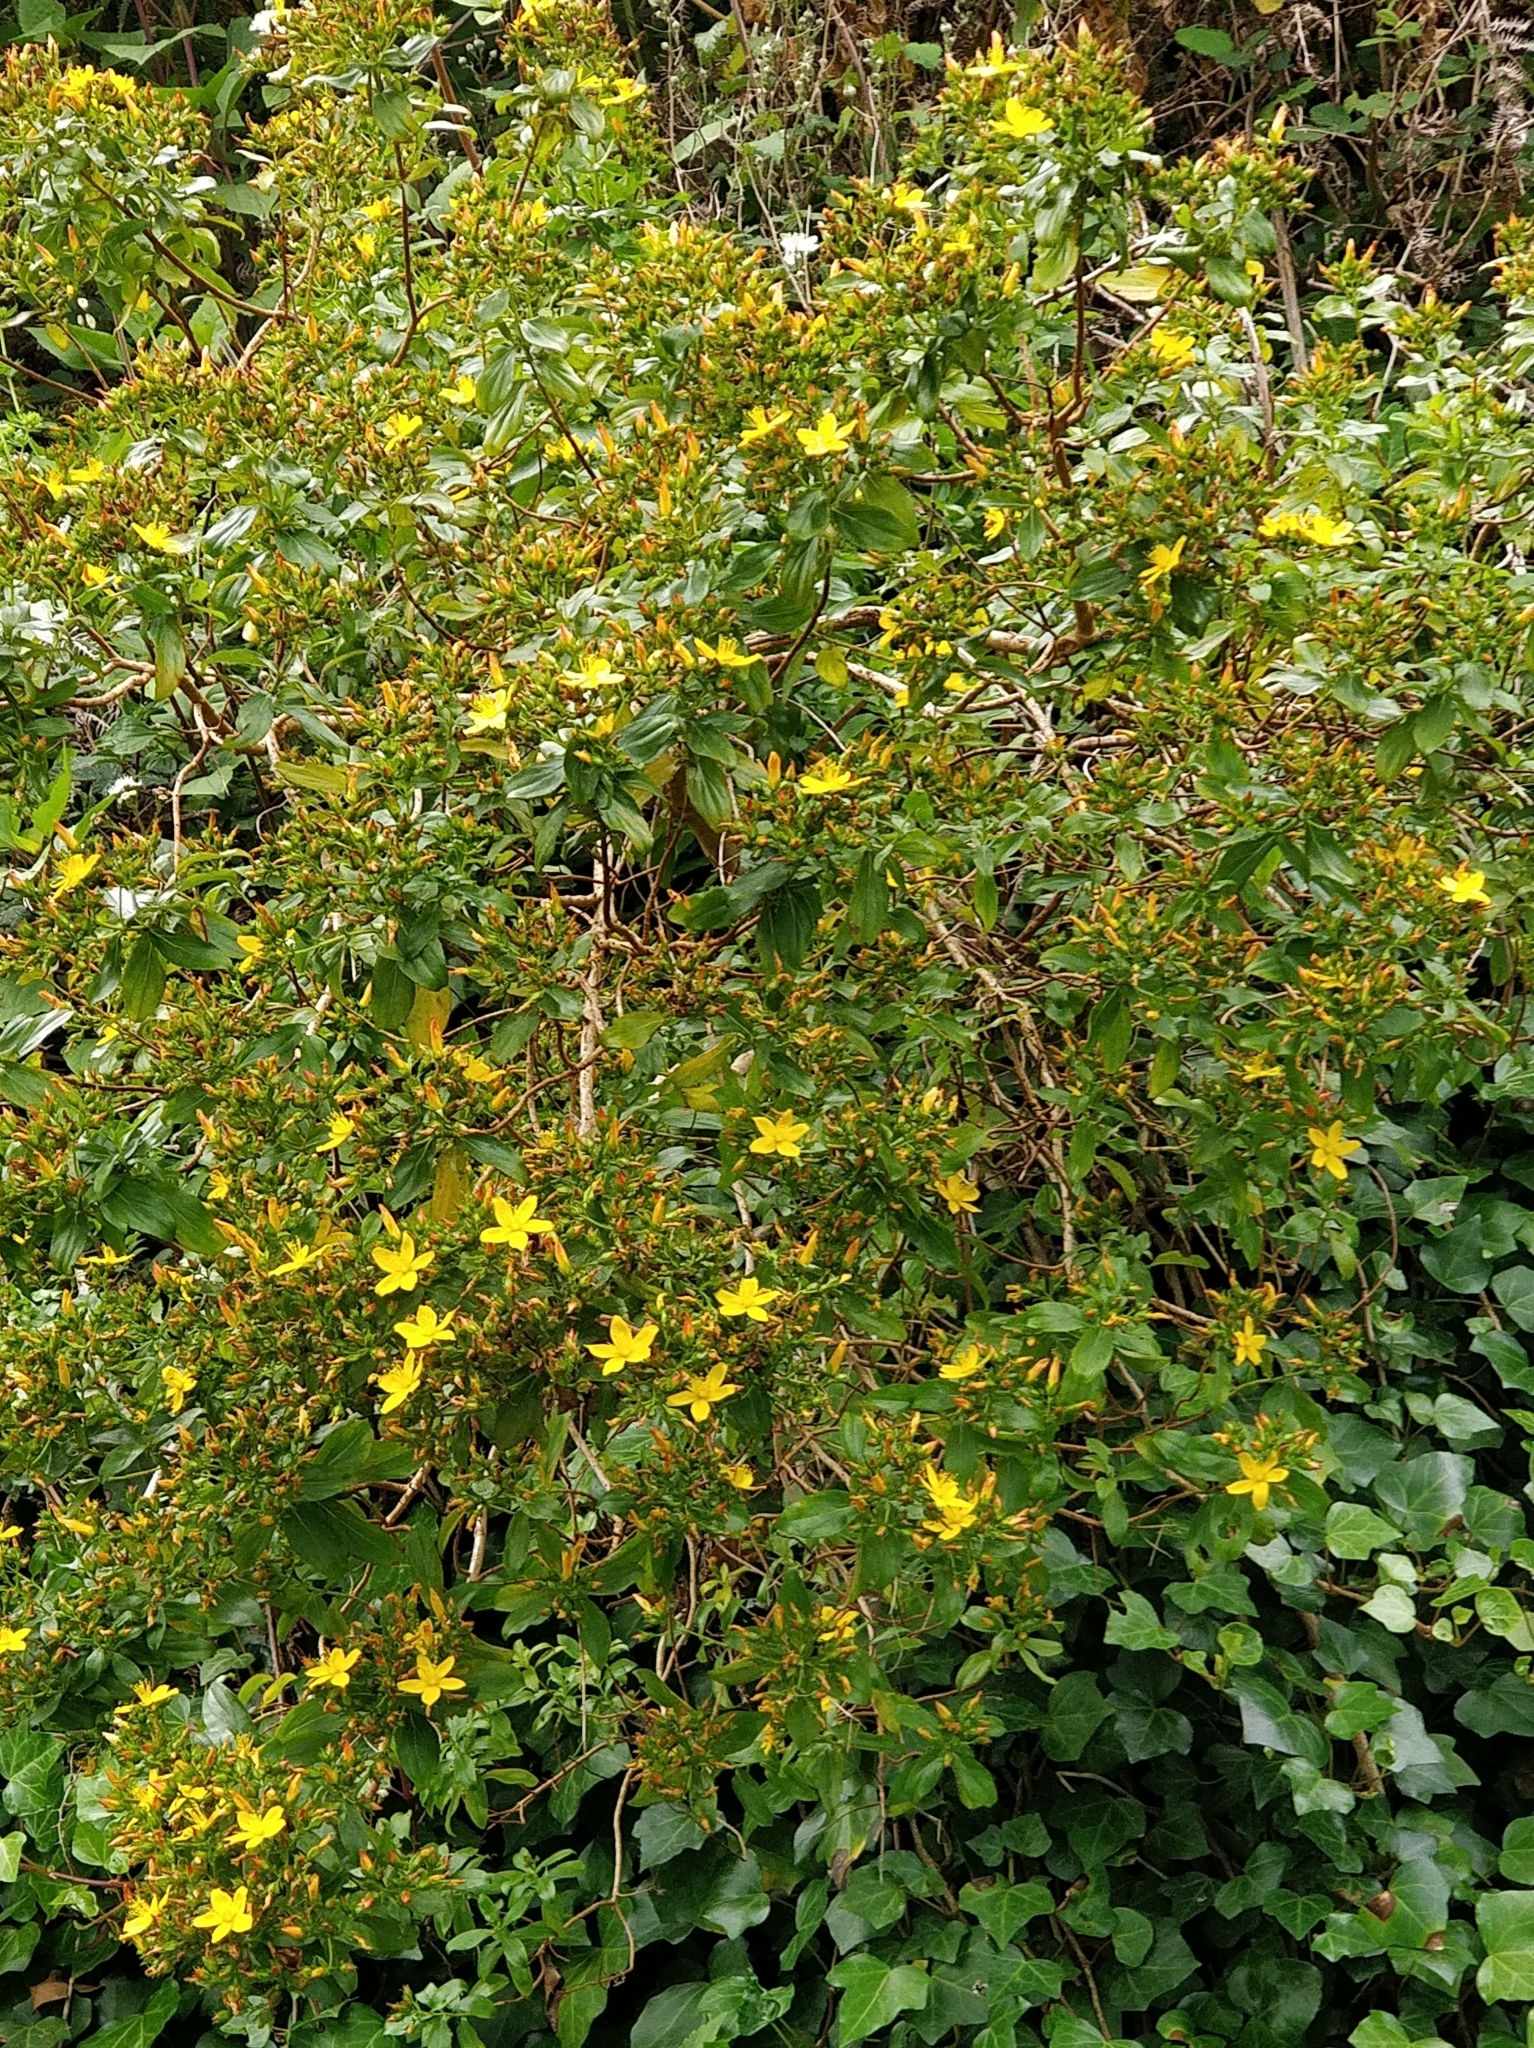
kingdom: Plantae
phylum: Tracheophyta
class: Magnoliopsida
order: Malpighiales
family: Hypericaceae
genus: Hypericum
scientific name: Hypericum glandulosum
